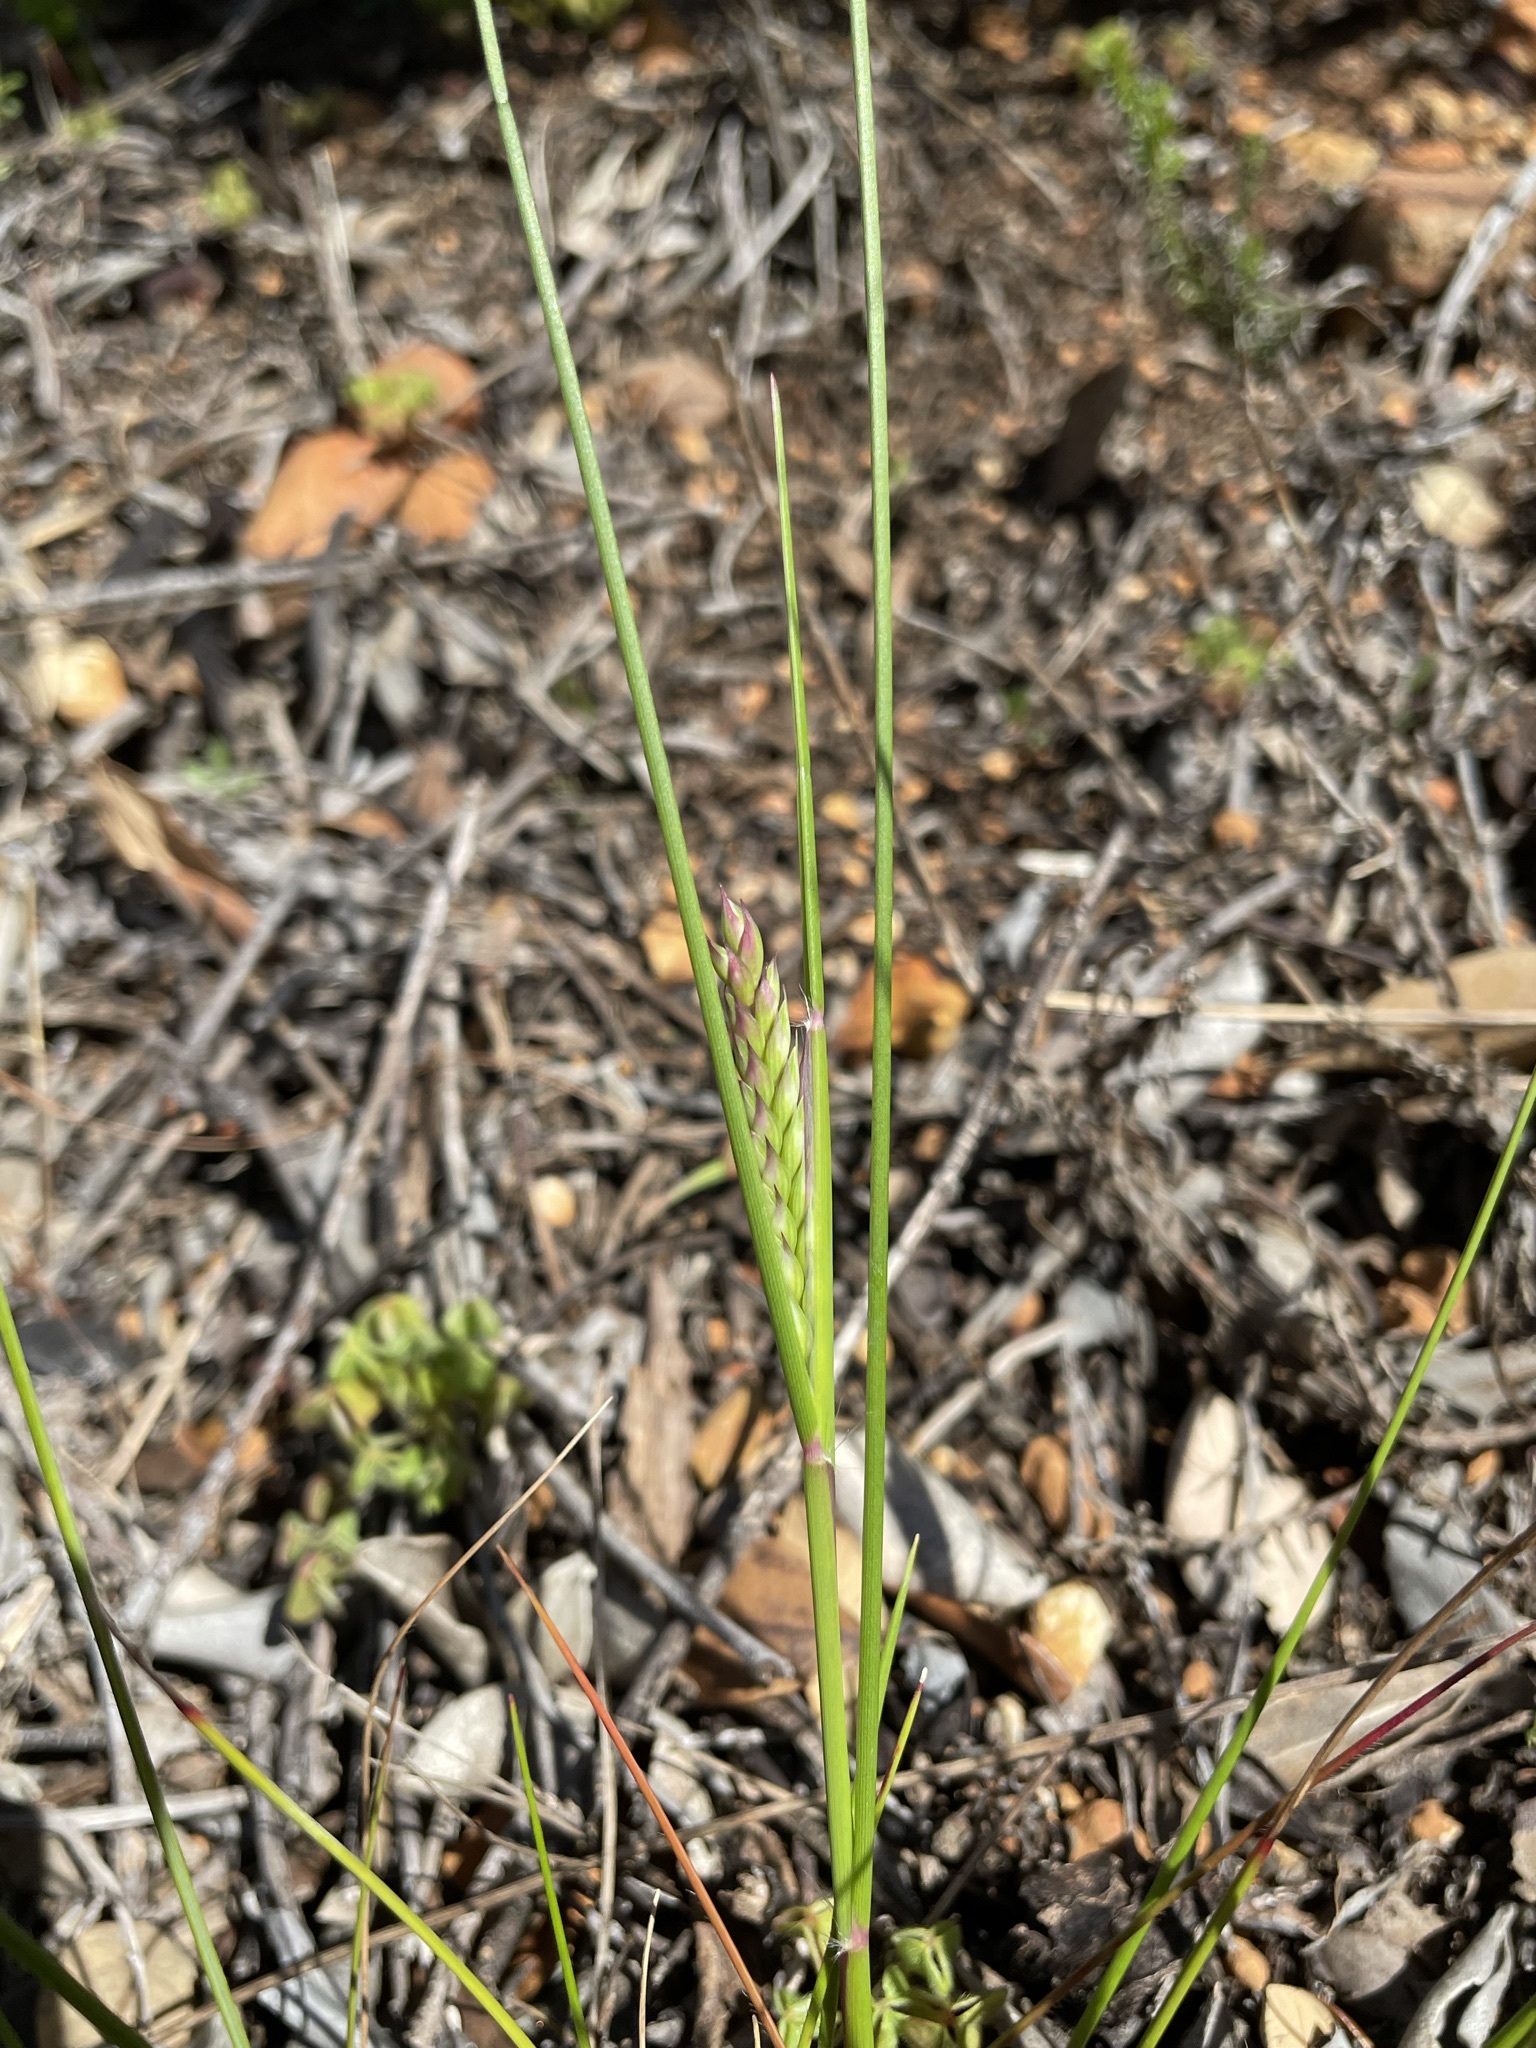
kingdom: Plantae
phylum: Tracheophyta
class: Liliopsida
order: Poales
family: Poaceae
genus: Tribolium
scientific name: Tribolium uniolae
